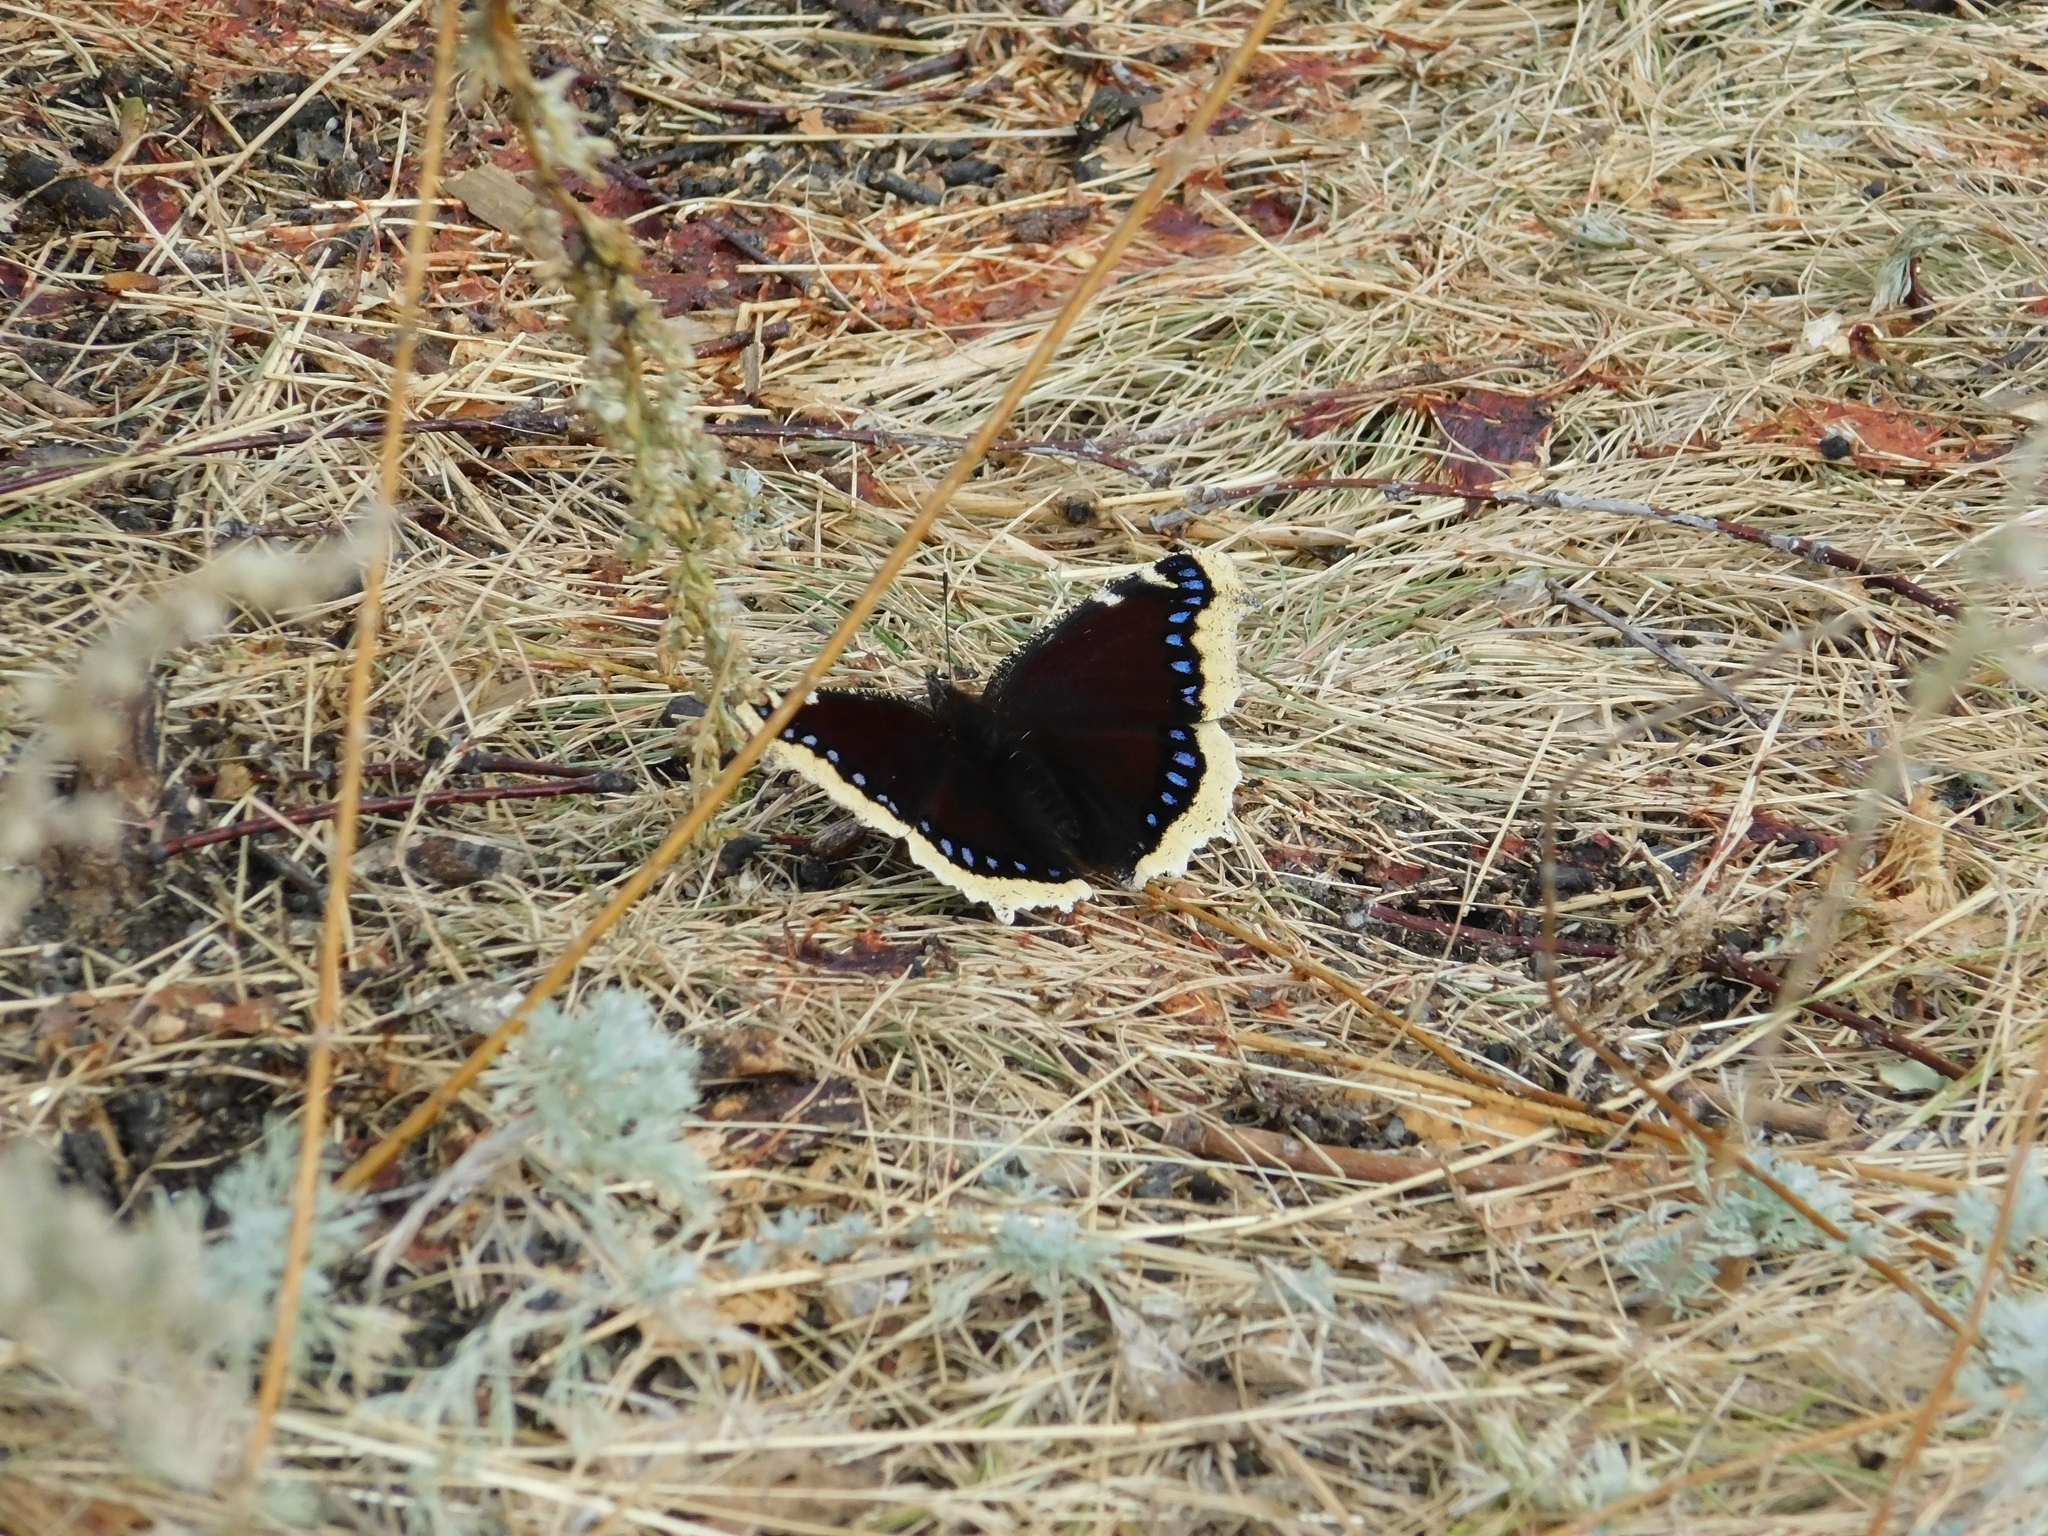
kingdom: Animalia
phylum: Arthropoda
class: Insecta
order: Lepidoptera
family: Nymphalidae
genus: Nymphalis
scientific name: Nymphalis antiopa
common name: Camberwell beauty
